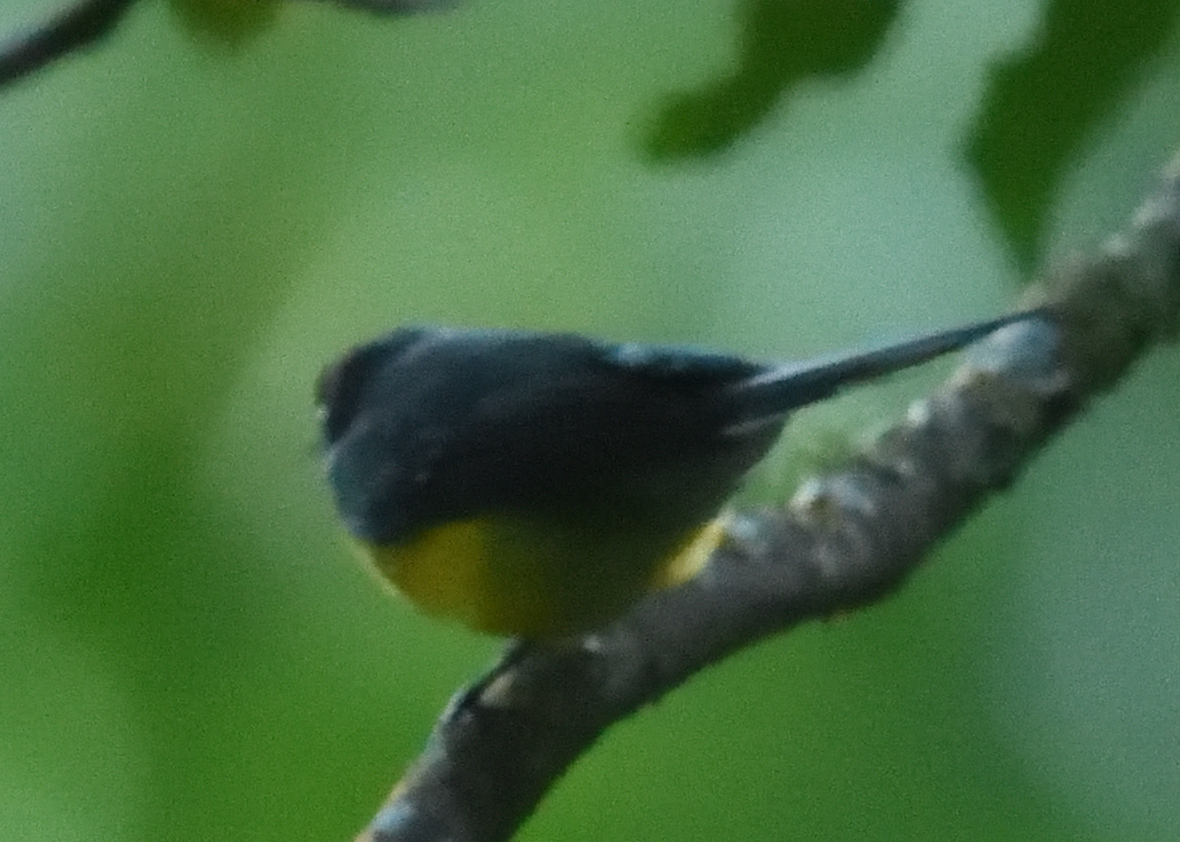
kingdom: Animalia
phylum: Chordata
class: Aves
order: Passeriformes
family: Parulidae
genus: Myioborus
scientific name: Myioborus miniatus
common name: Slate-throated redstart
